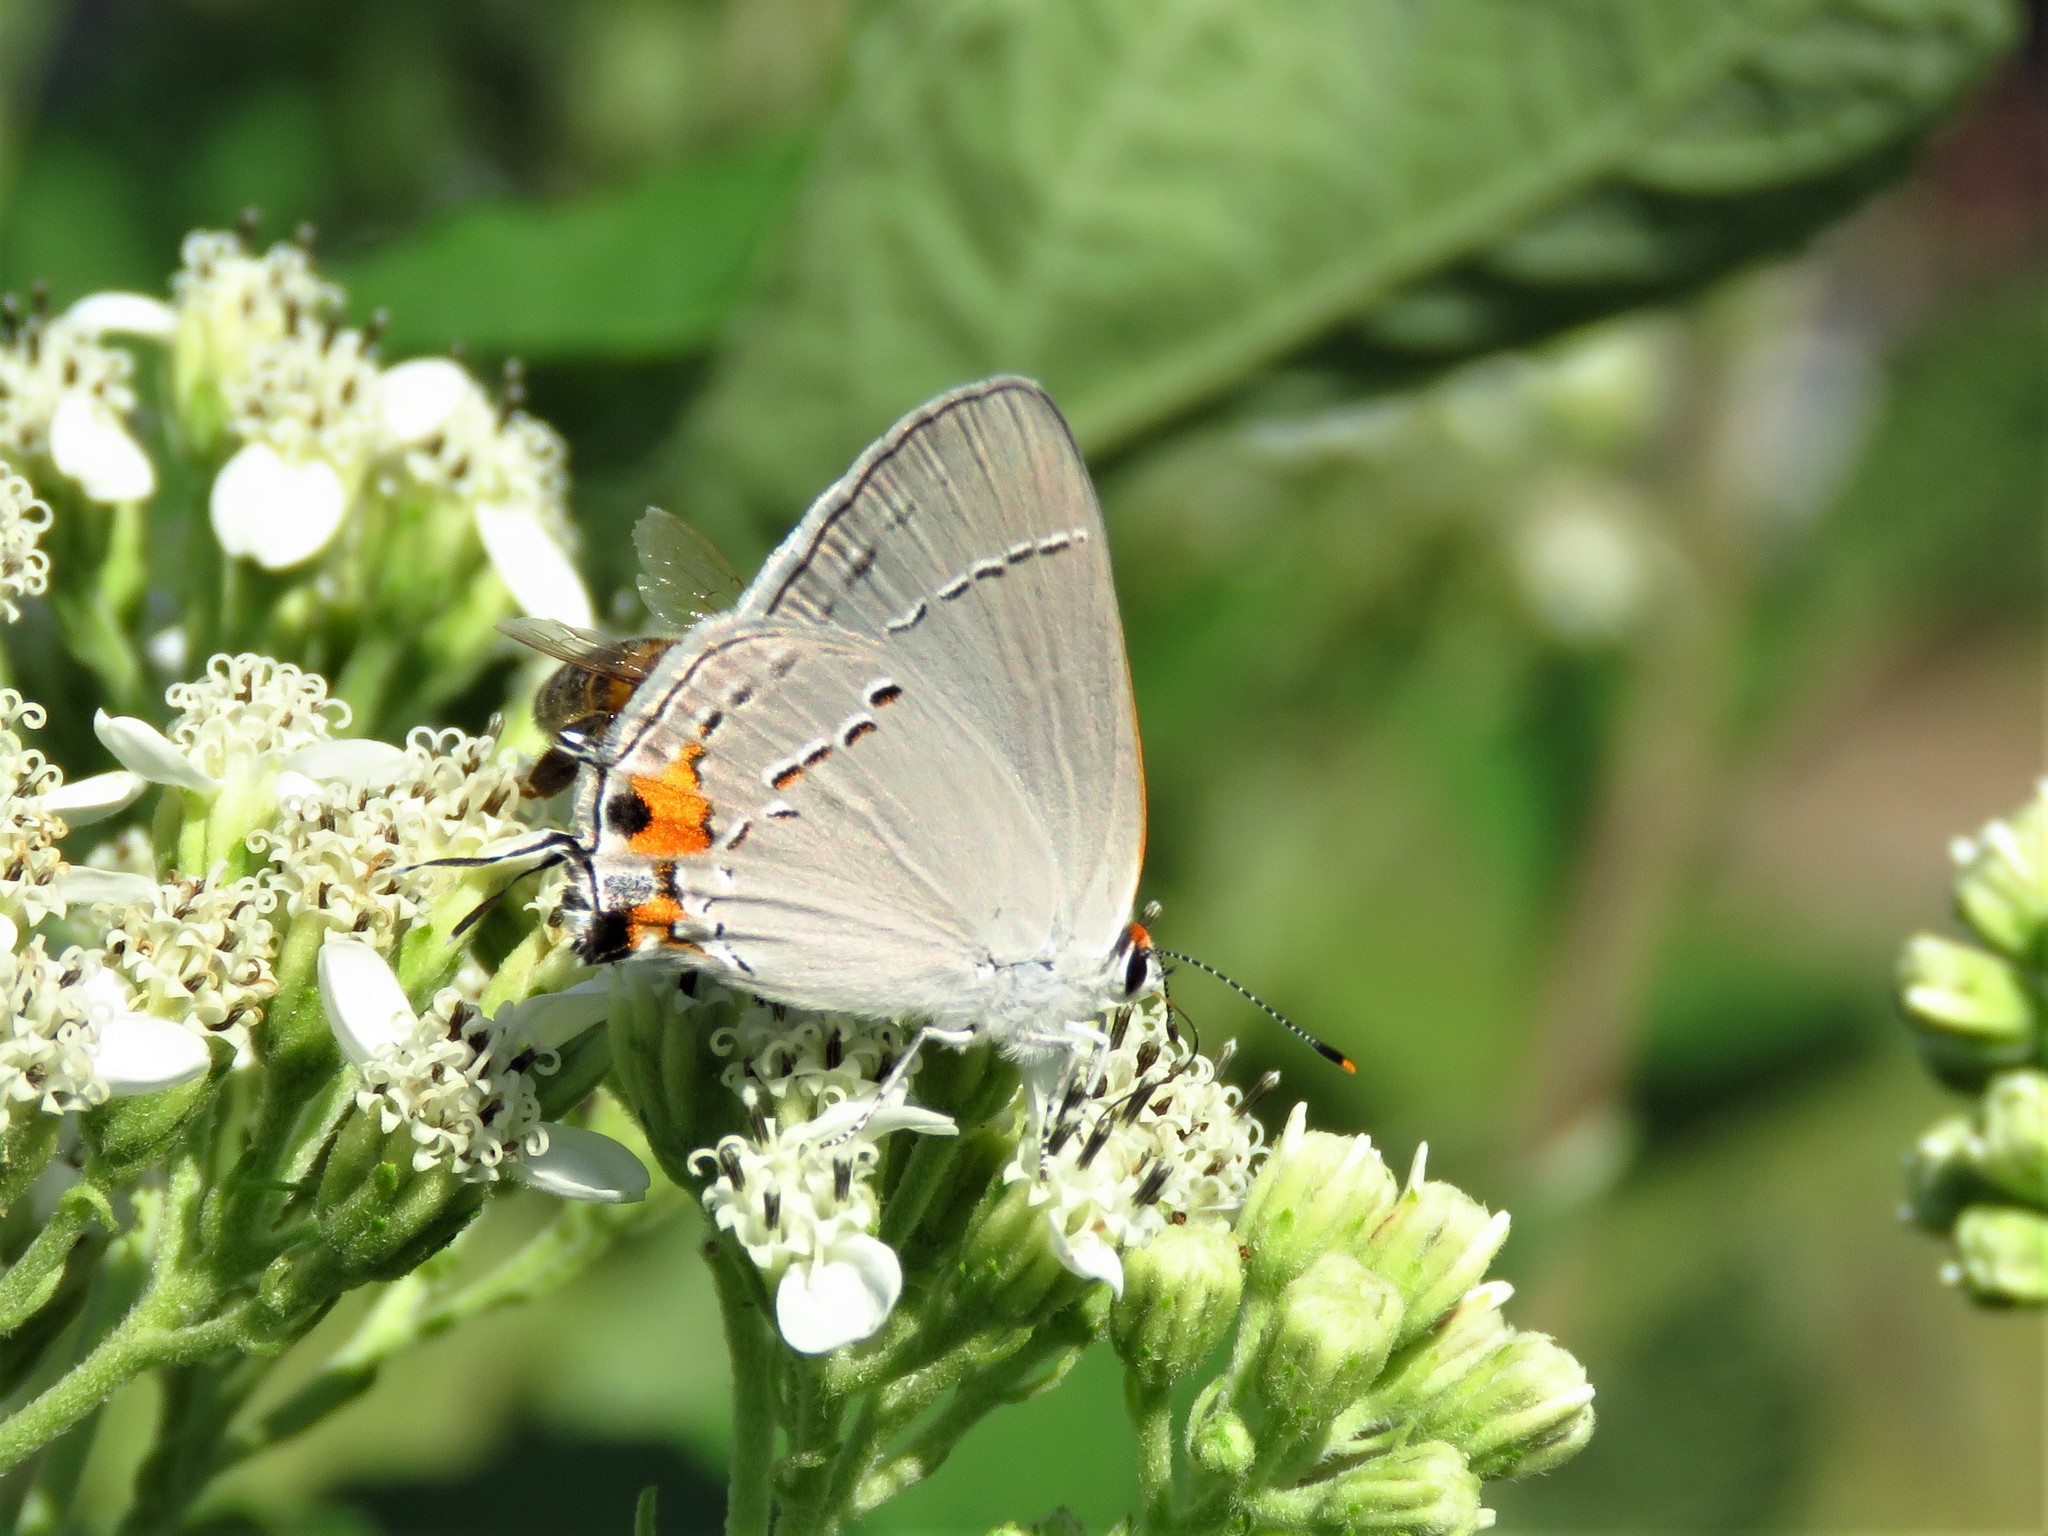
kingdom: Animalia
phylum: Arthropoda
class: Insecta
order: Lepidoptera
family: Lycaenidae
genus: Strymon
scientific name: Strymon melinus
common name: Gray hairstreak
